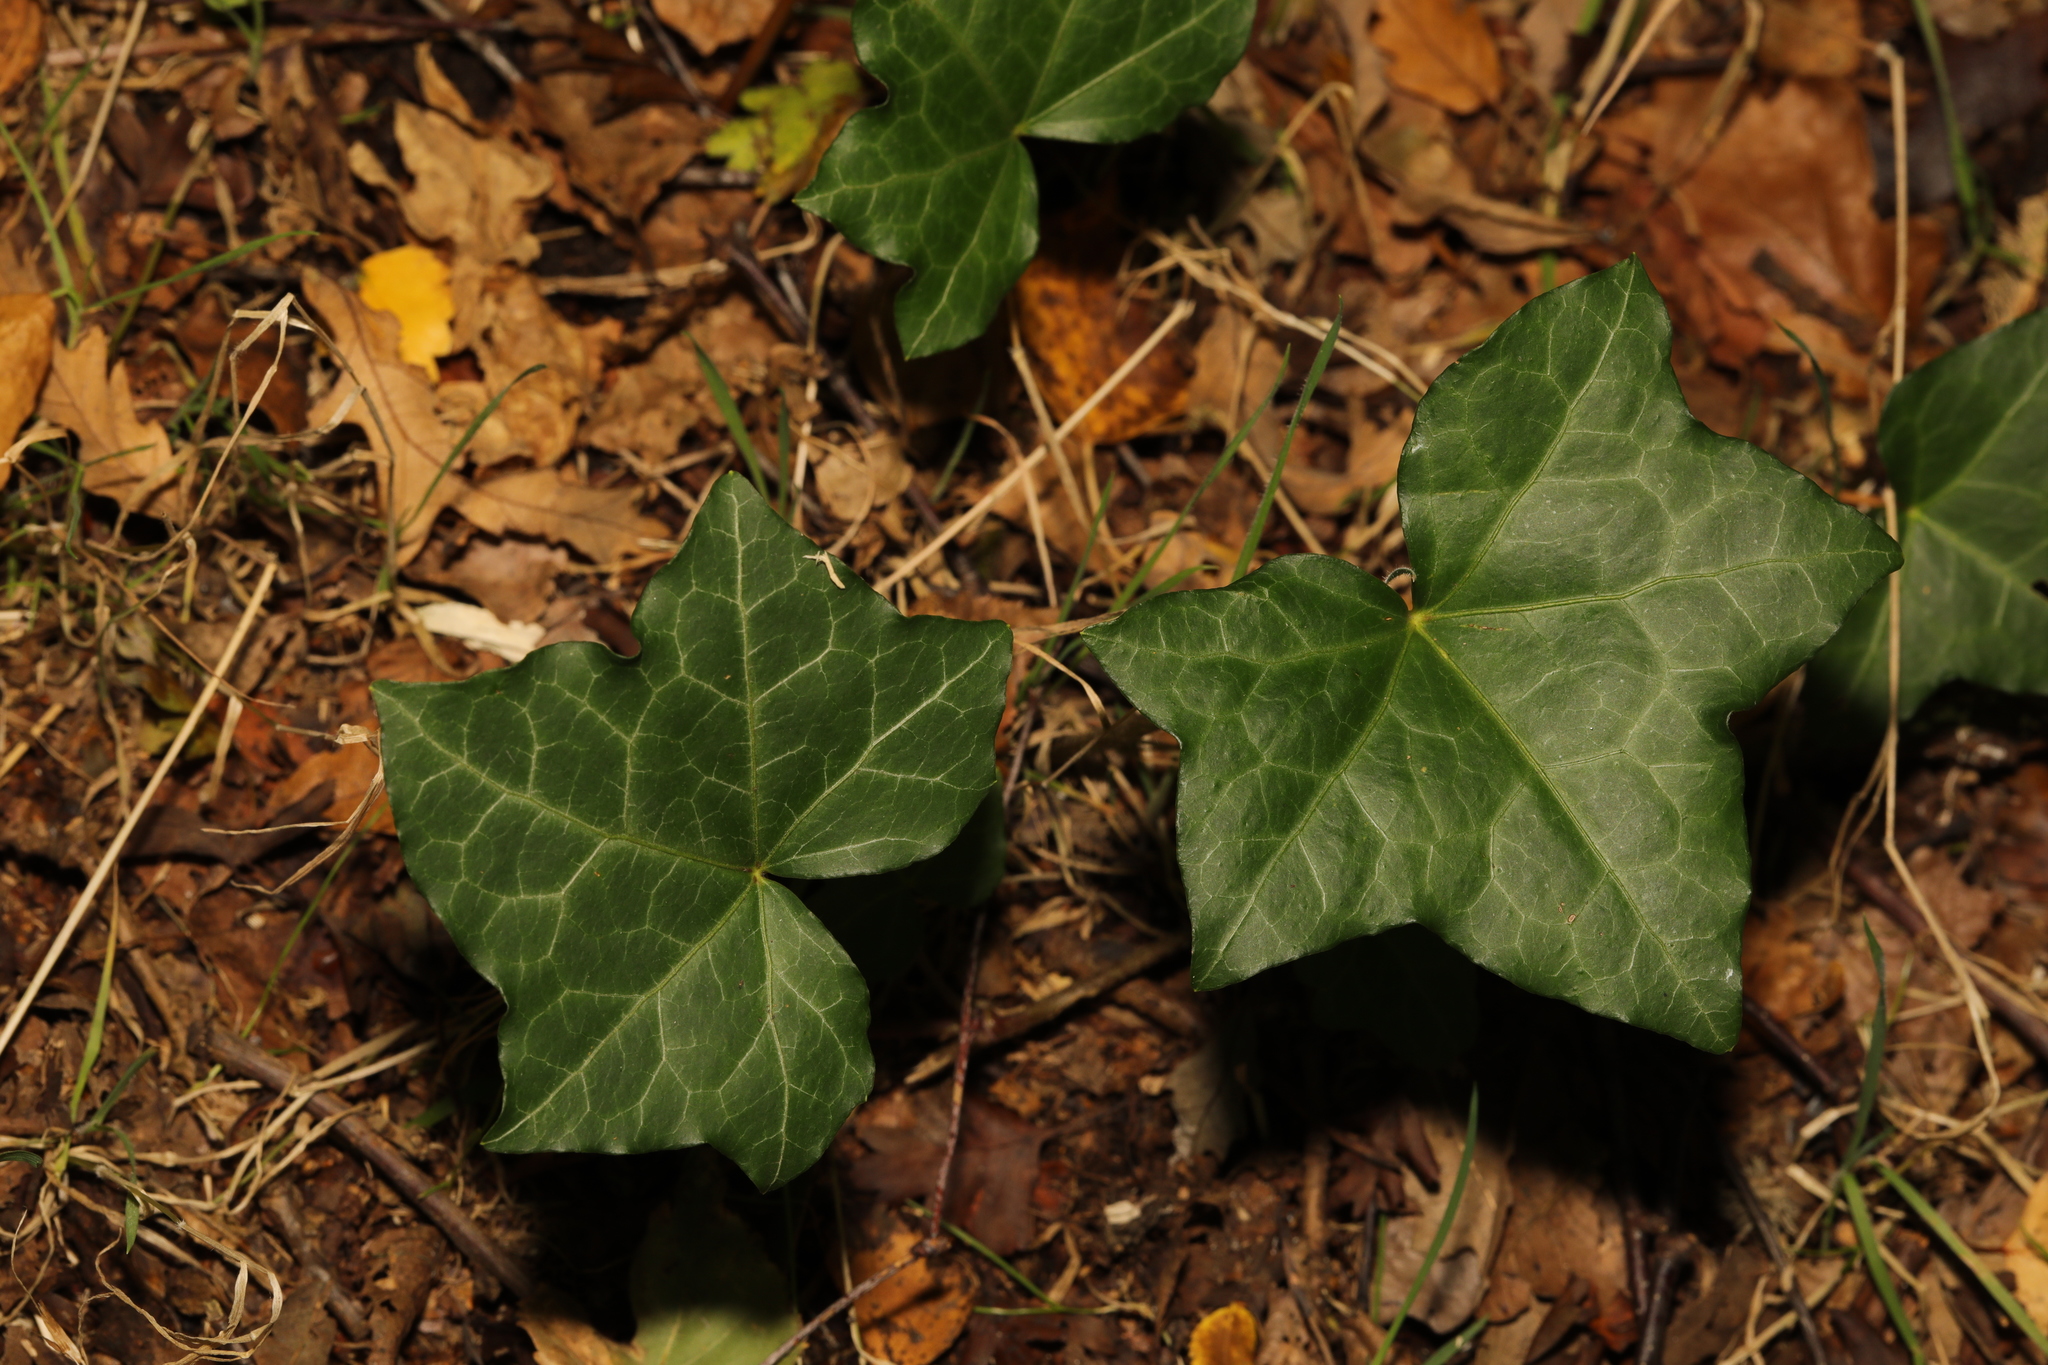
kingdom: Plantae
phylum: Tracheophyta
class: Magnoliopsida
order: Apiales
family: Araliaceae
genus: Hedera
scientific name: Hedera helix
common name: Ivy
